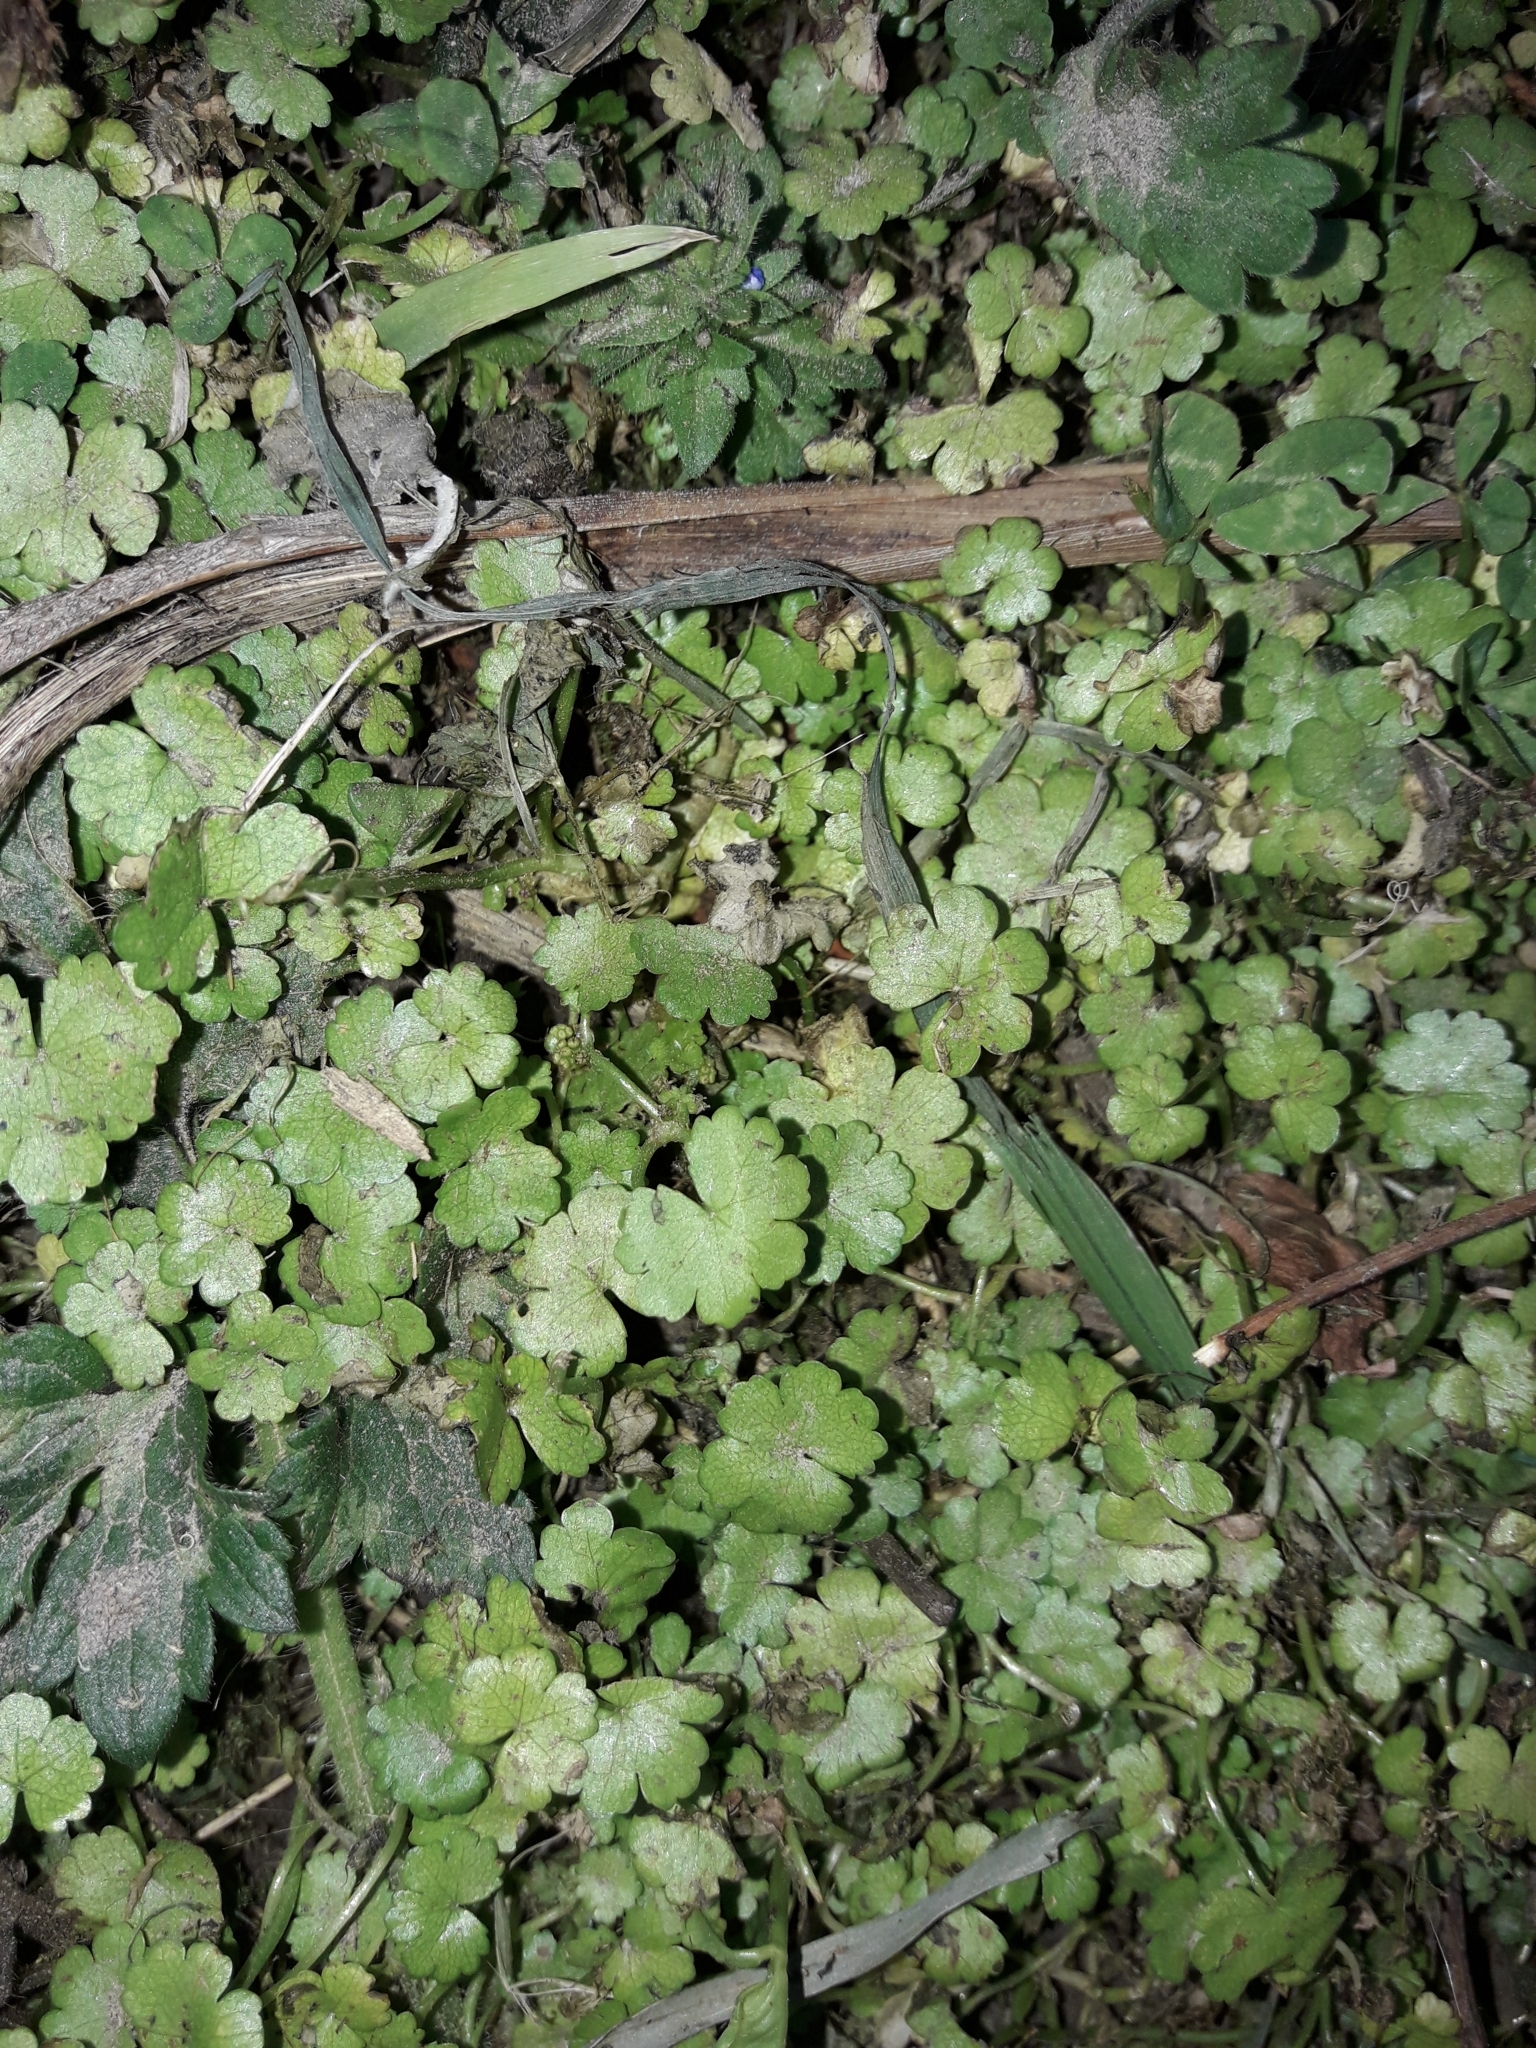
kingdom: Plantae
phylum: Tracheophyta
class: Magnoliopsida
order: Apiales
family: Araliaceae
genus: Hydrocotyle
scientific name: Hydrocotyle heteromeria
